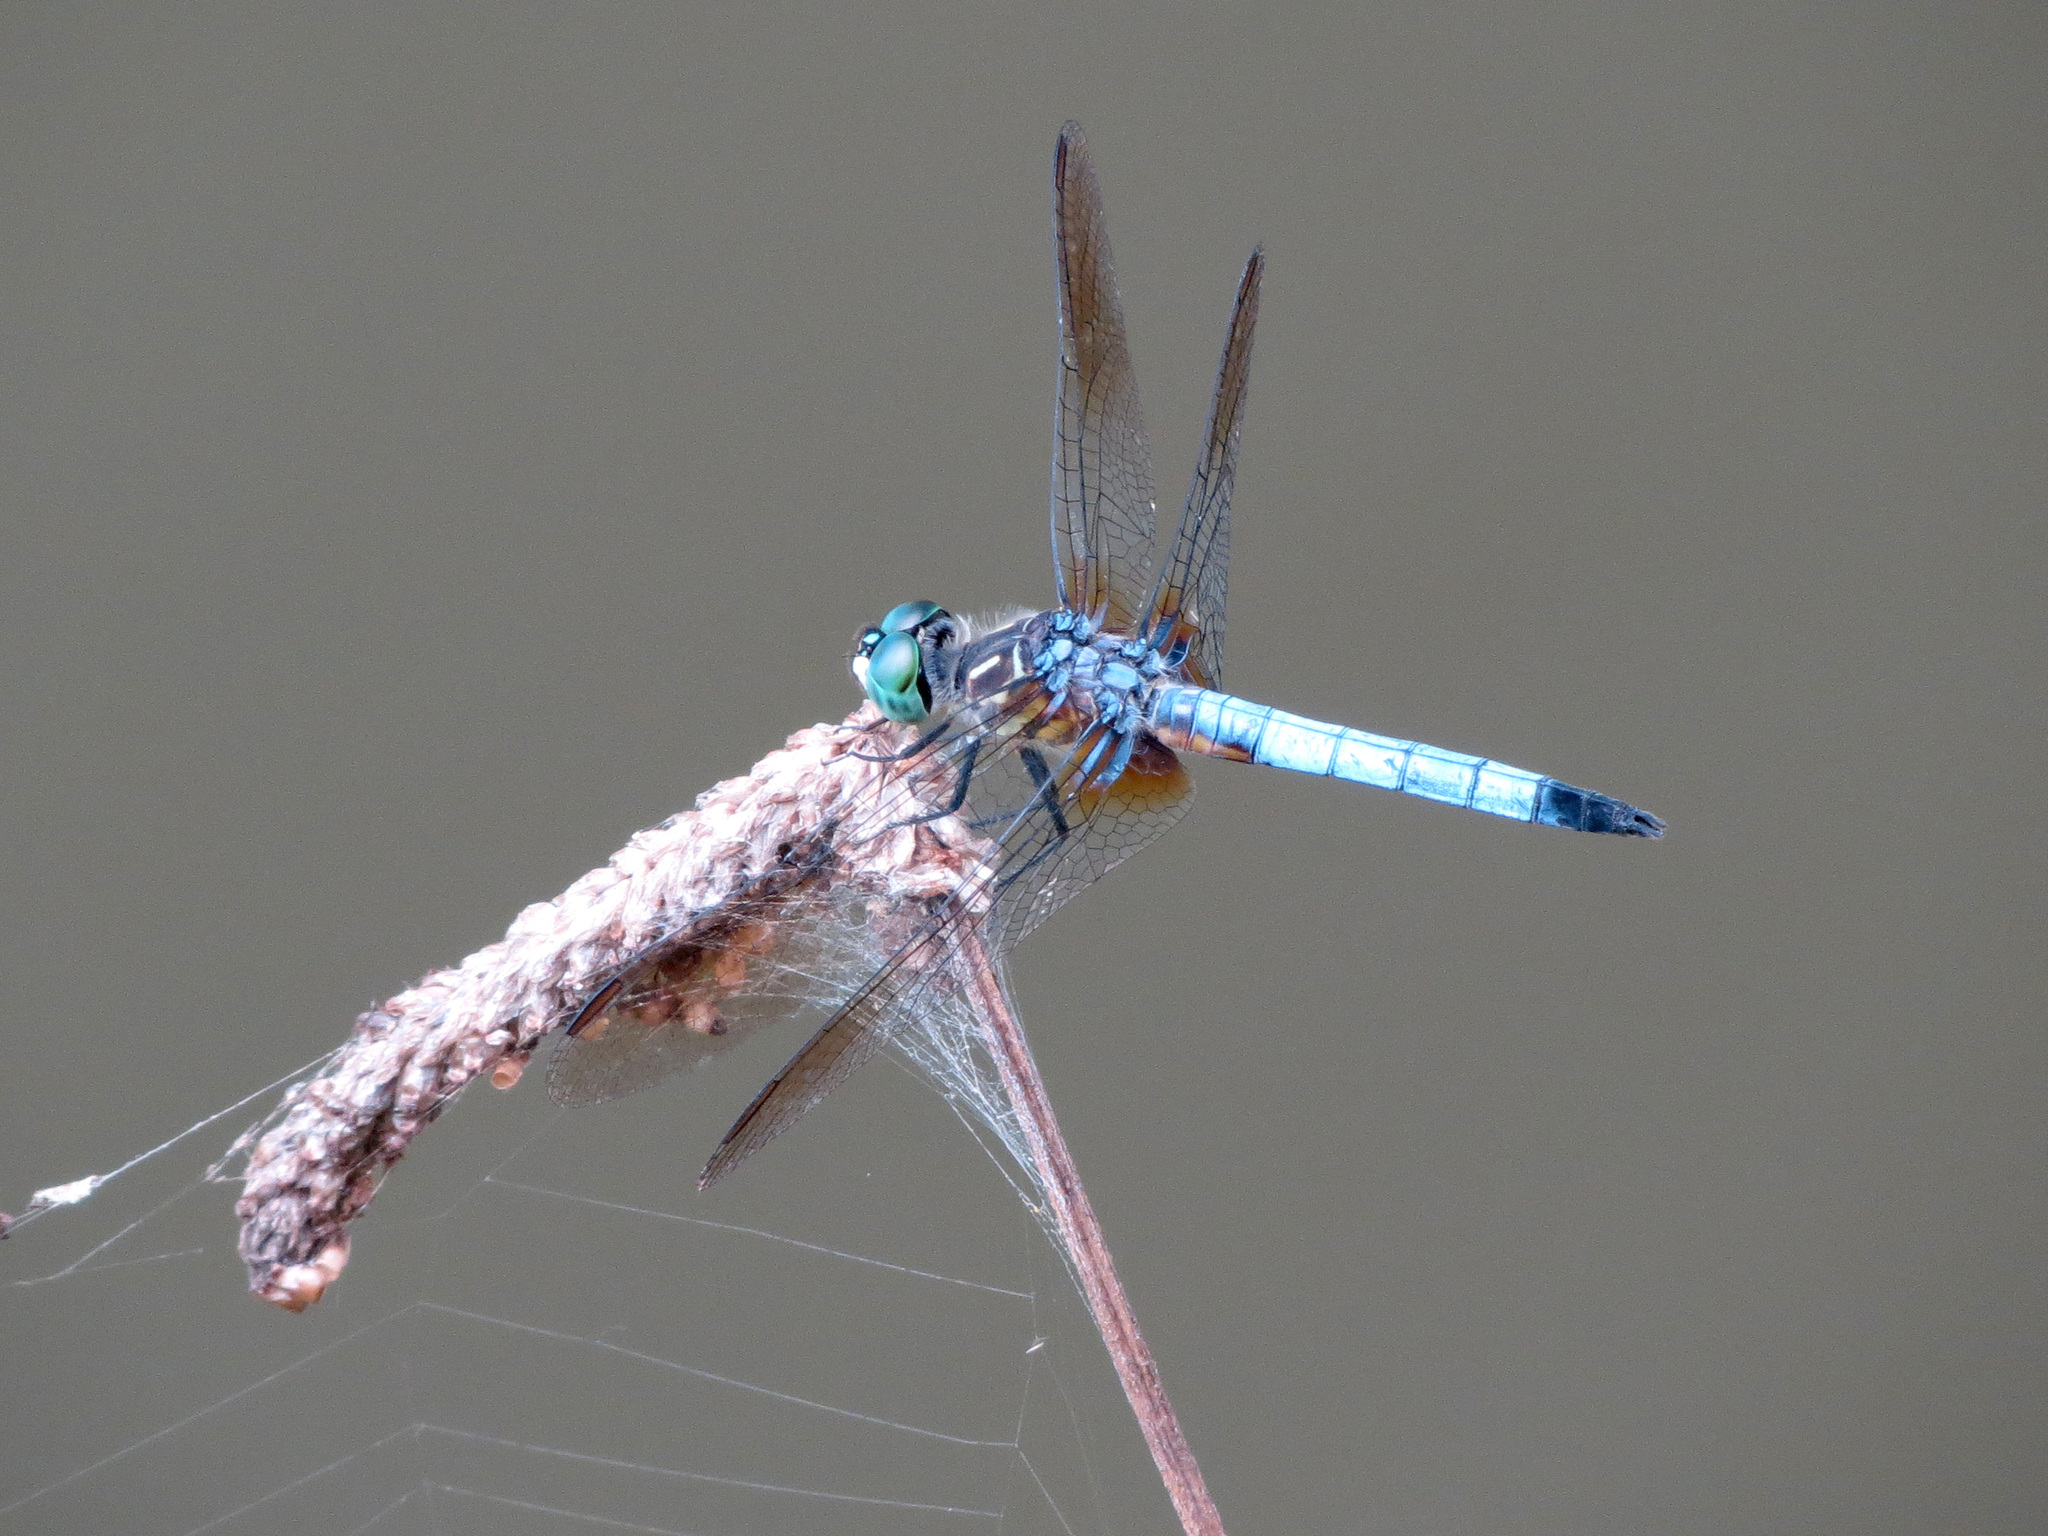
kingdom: Animalia
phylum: Arthropoda
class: Insecta
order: Odonata
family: Libellulidae
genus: Pachydiplax
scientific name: Pachydiplax longipennis
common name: Blue dasher
